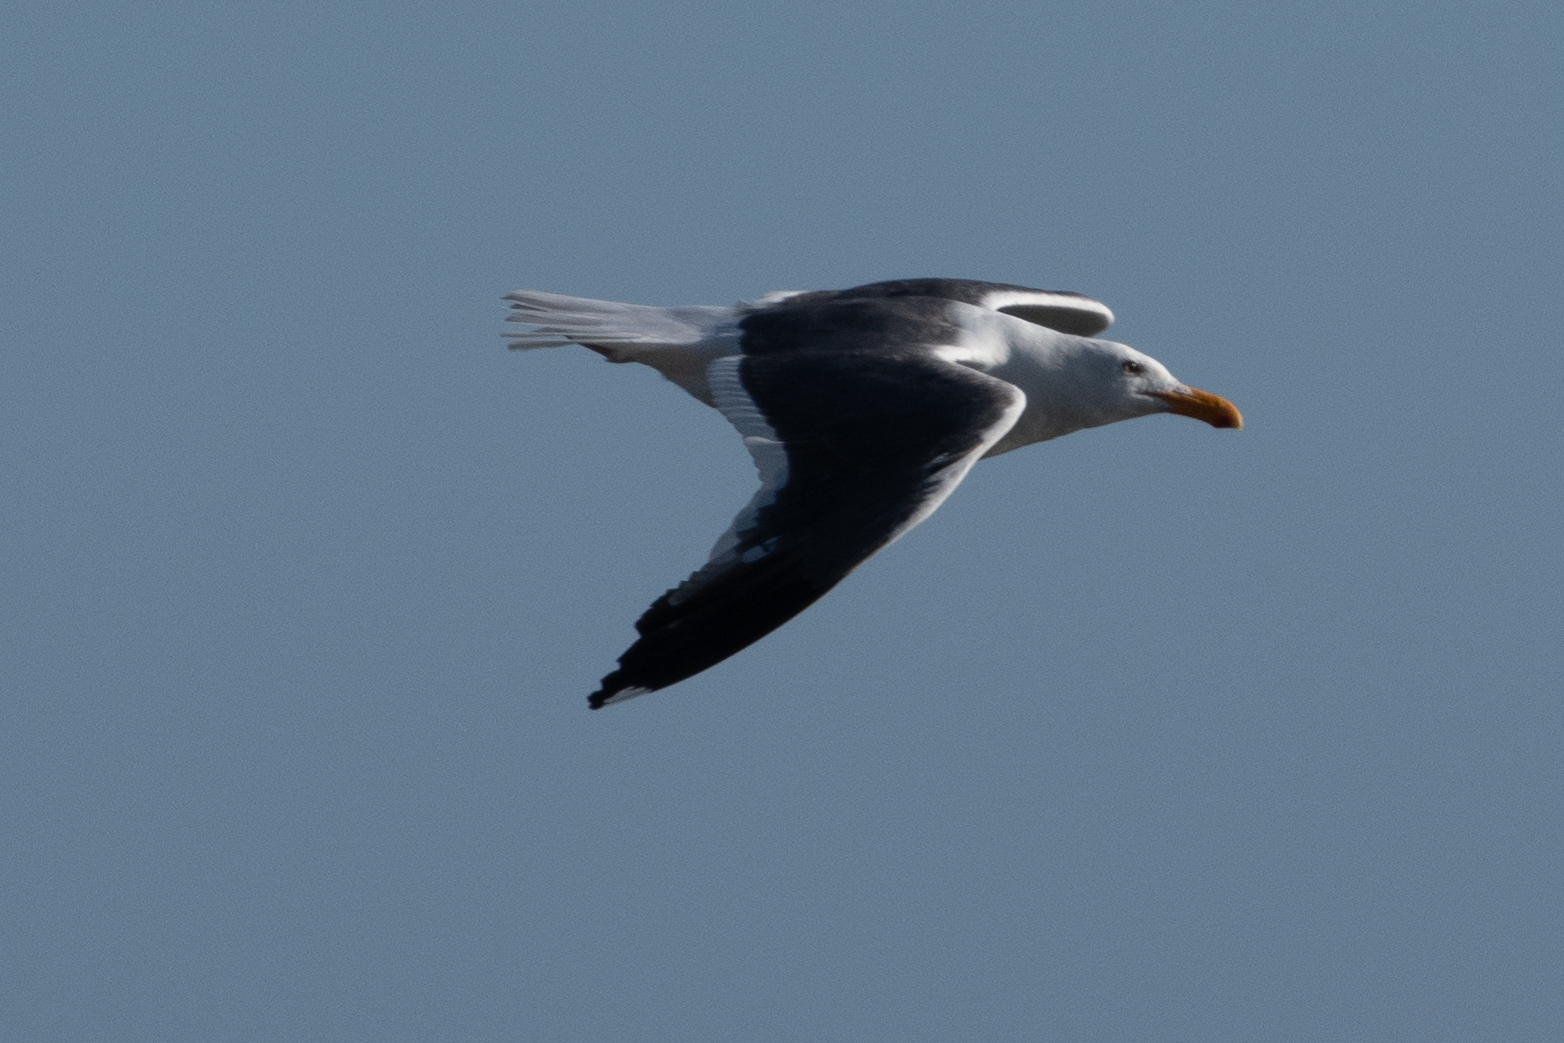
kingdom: Animalia
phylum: Chordata
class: Aves
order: Charadriiformes
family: Laridae
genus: Larus
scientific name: Larus occidentalis
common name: Western gull
